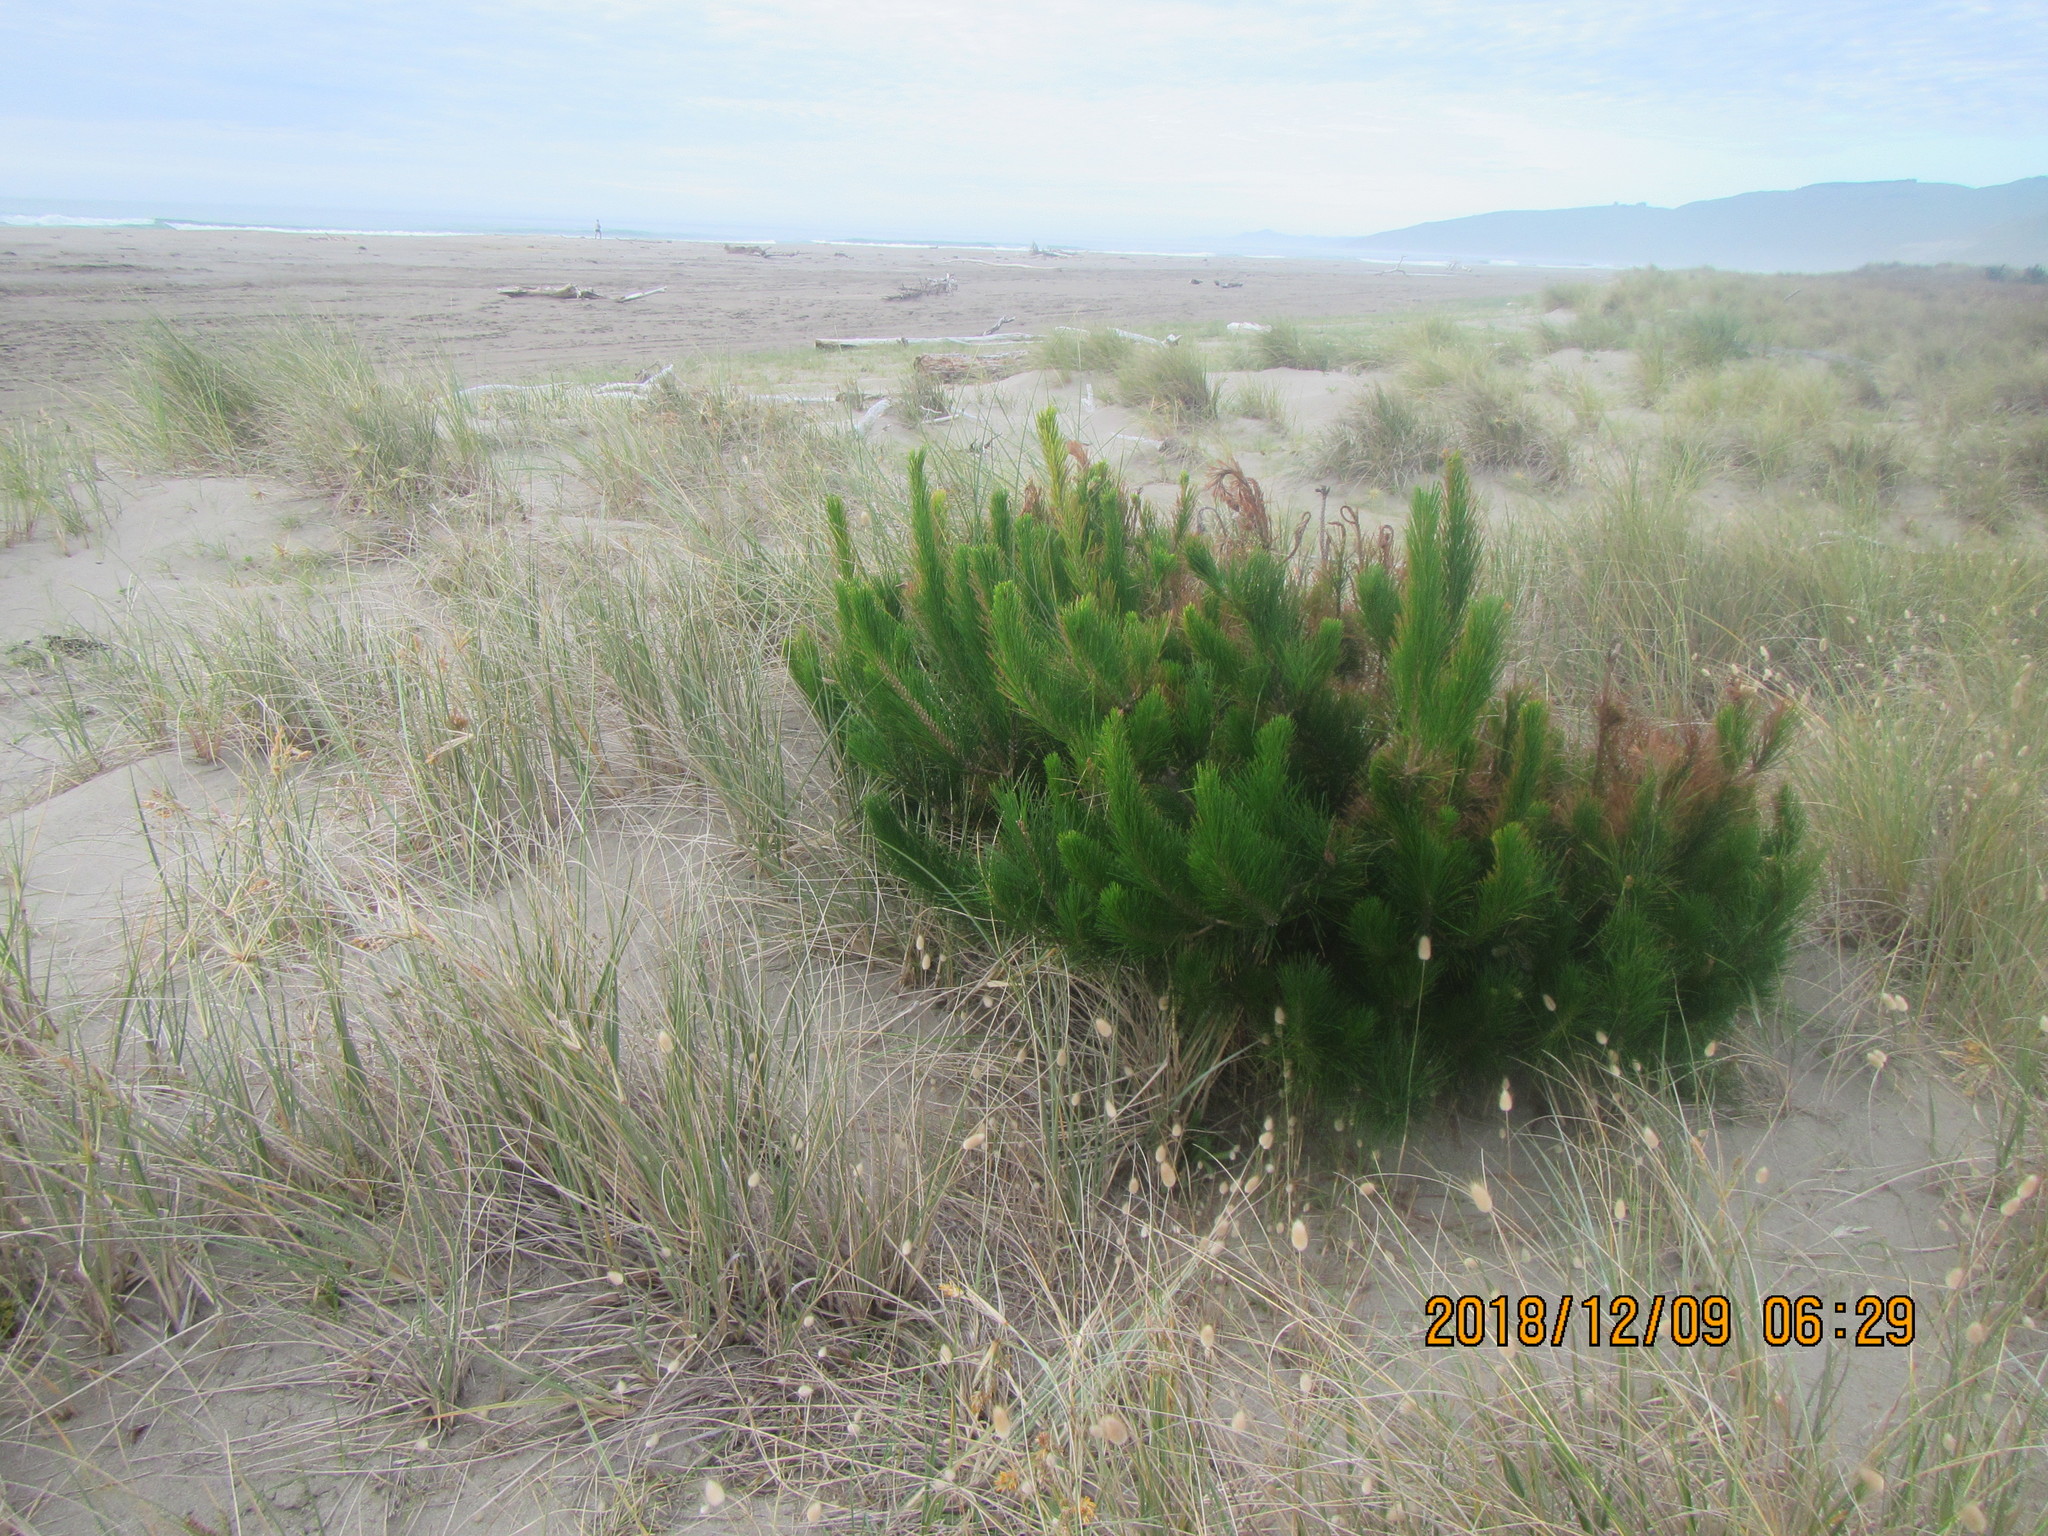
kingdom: Plantae
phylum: Tracheophyta
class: Pinopsida
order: Pinales
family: Pinaceae
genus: Pinus
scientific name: Pinus radiata
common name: Monterey pine
